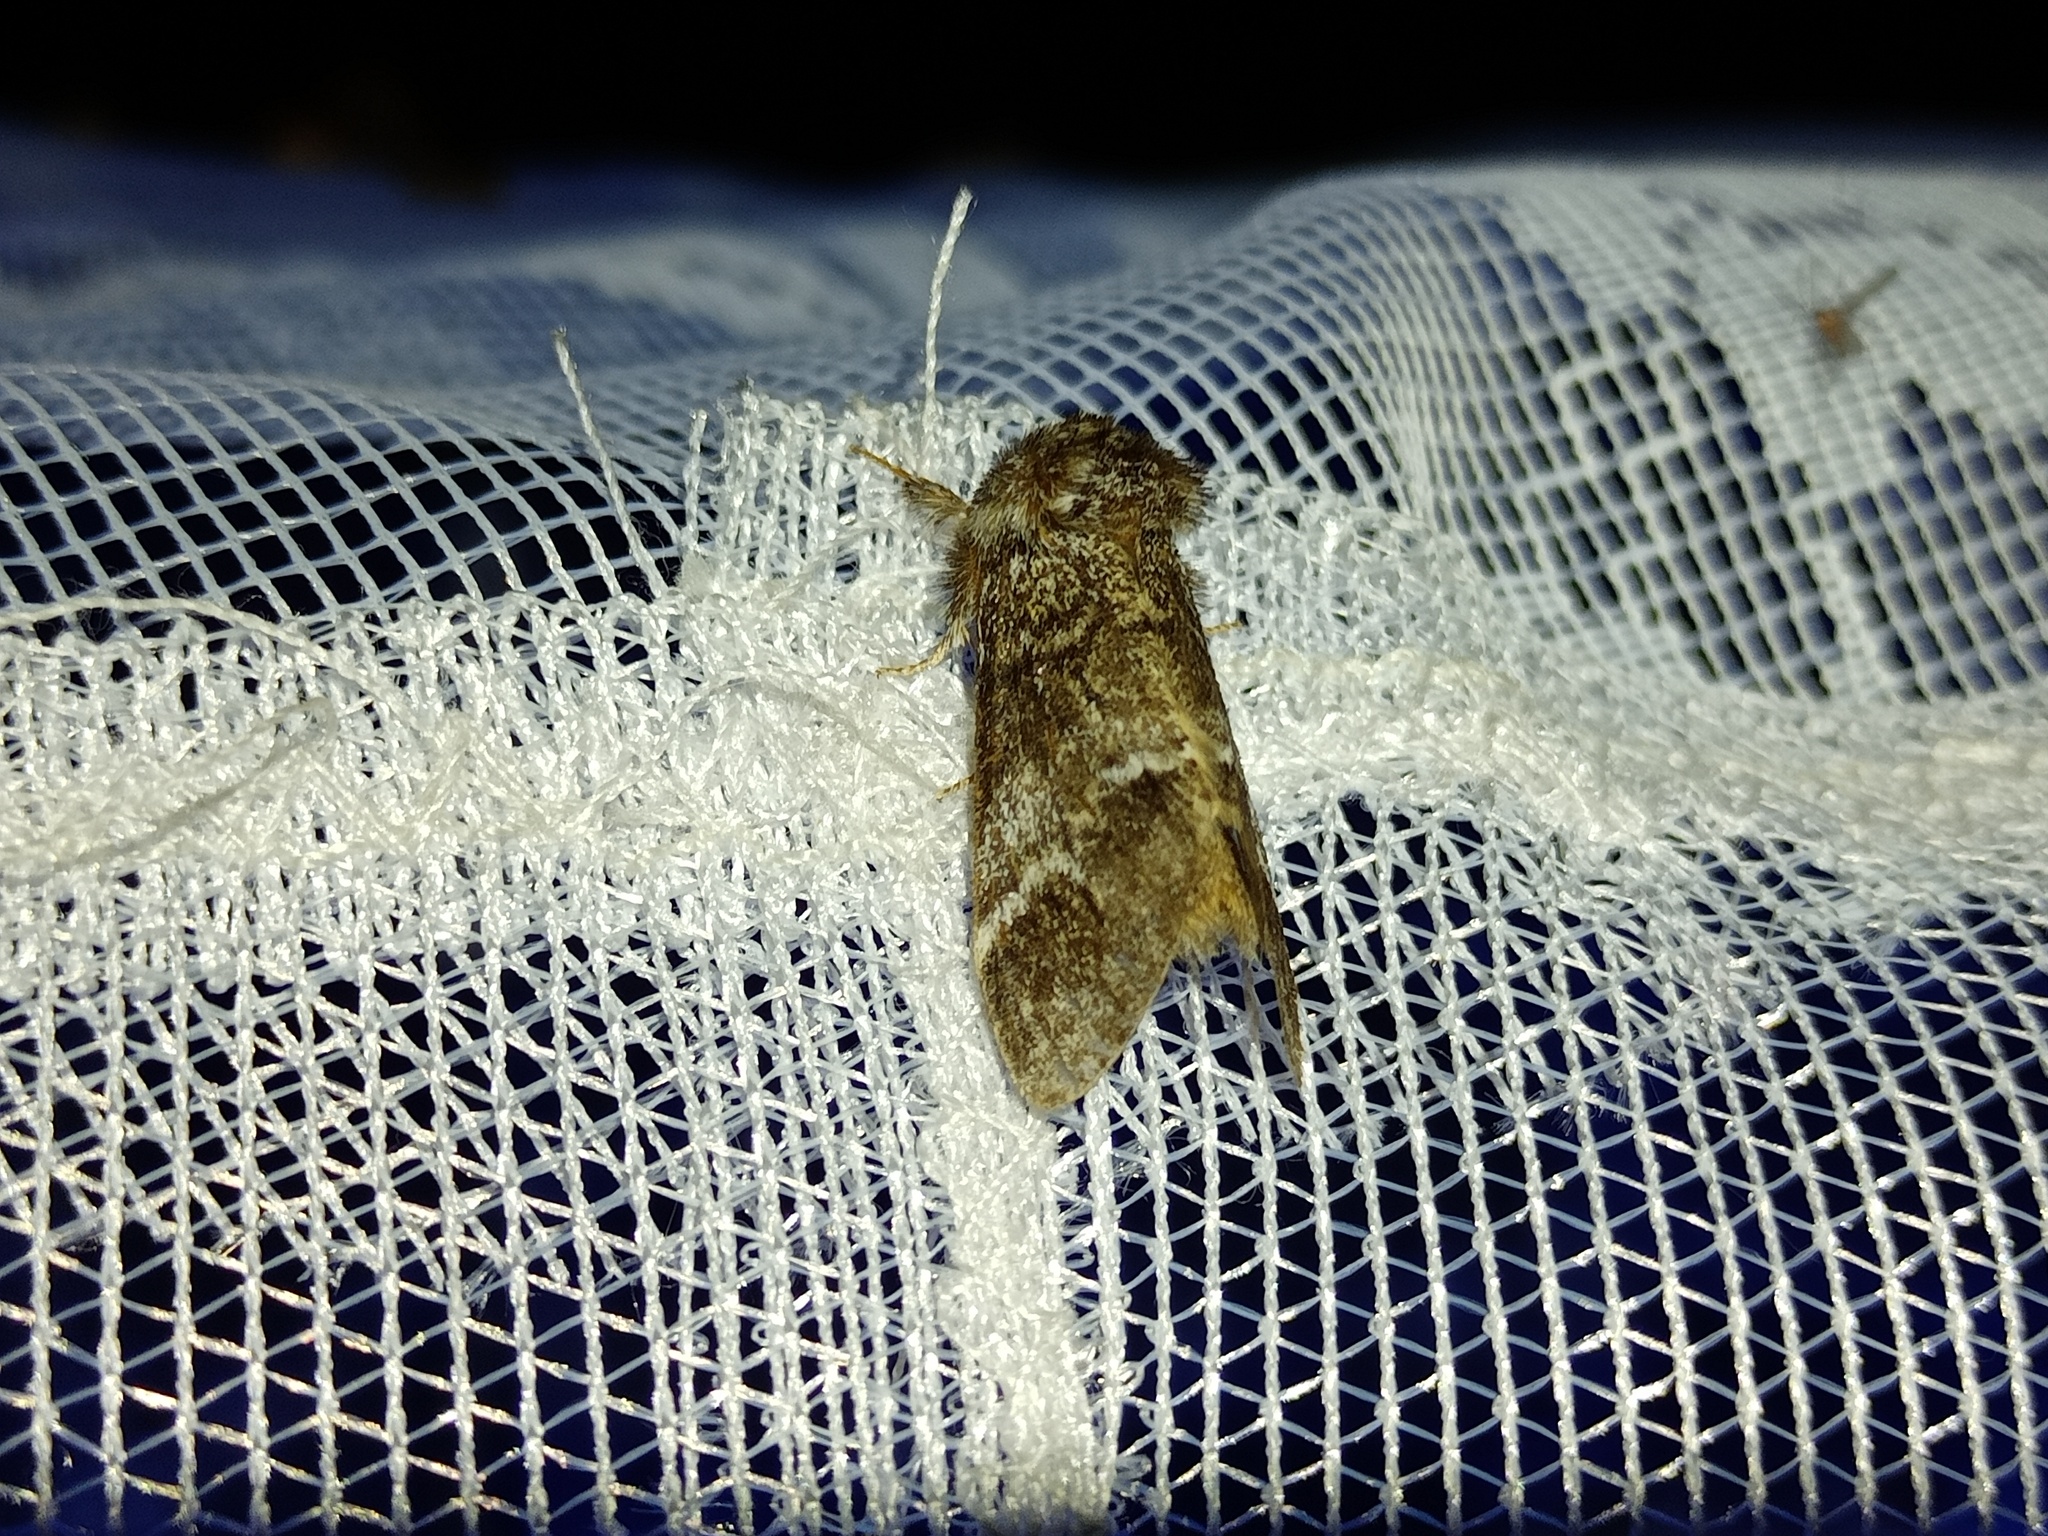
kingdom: Animalia
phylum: Arthropoda
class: Insecta
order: Lepidoptera
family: Notodontidae
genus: Drymonia
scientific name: Drymonia dodonaea
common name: Marbled brown
